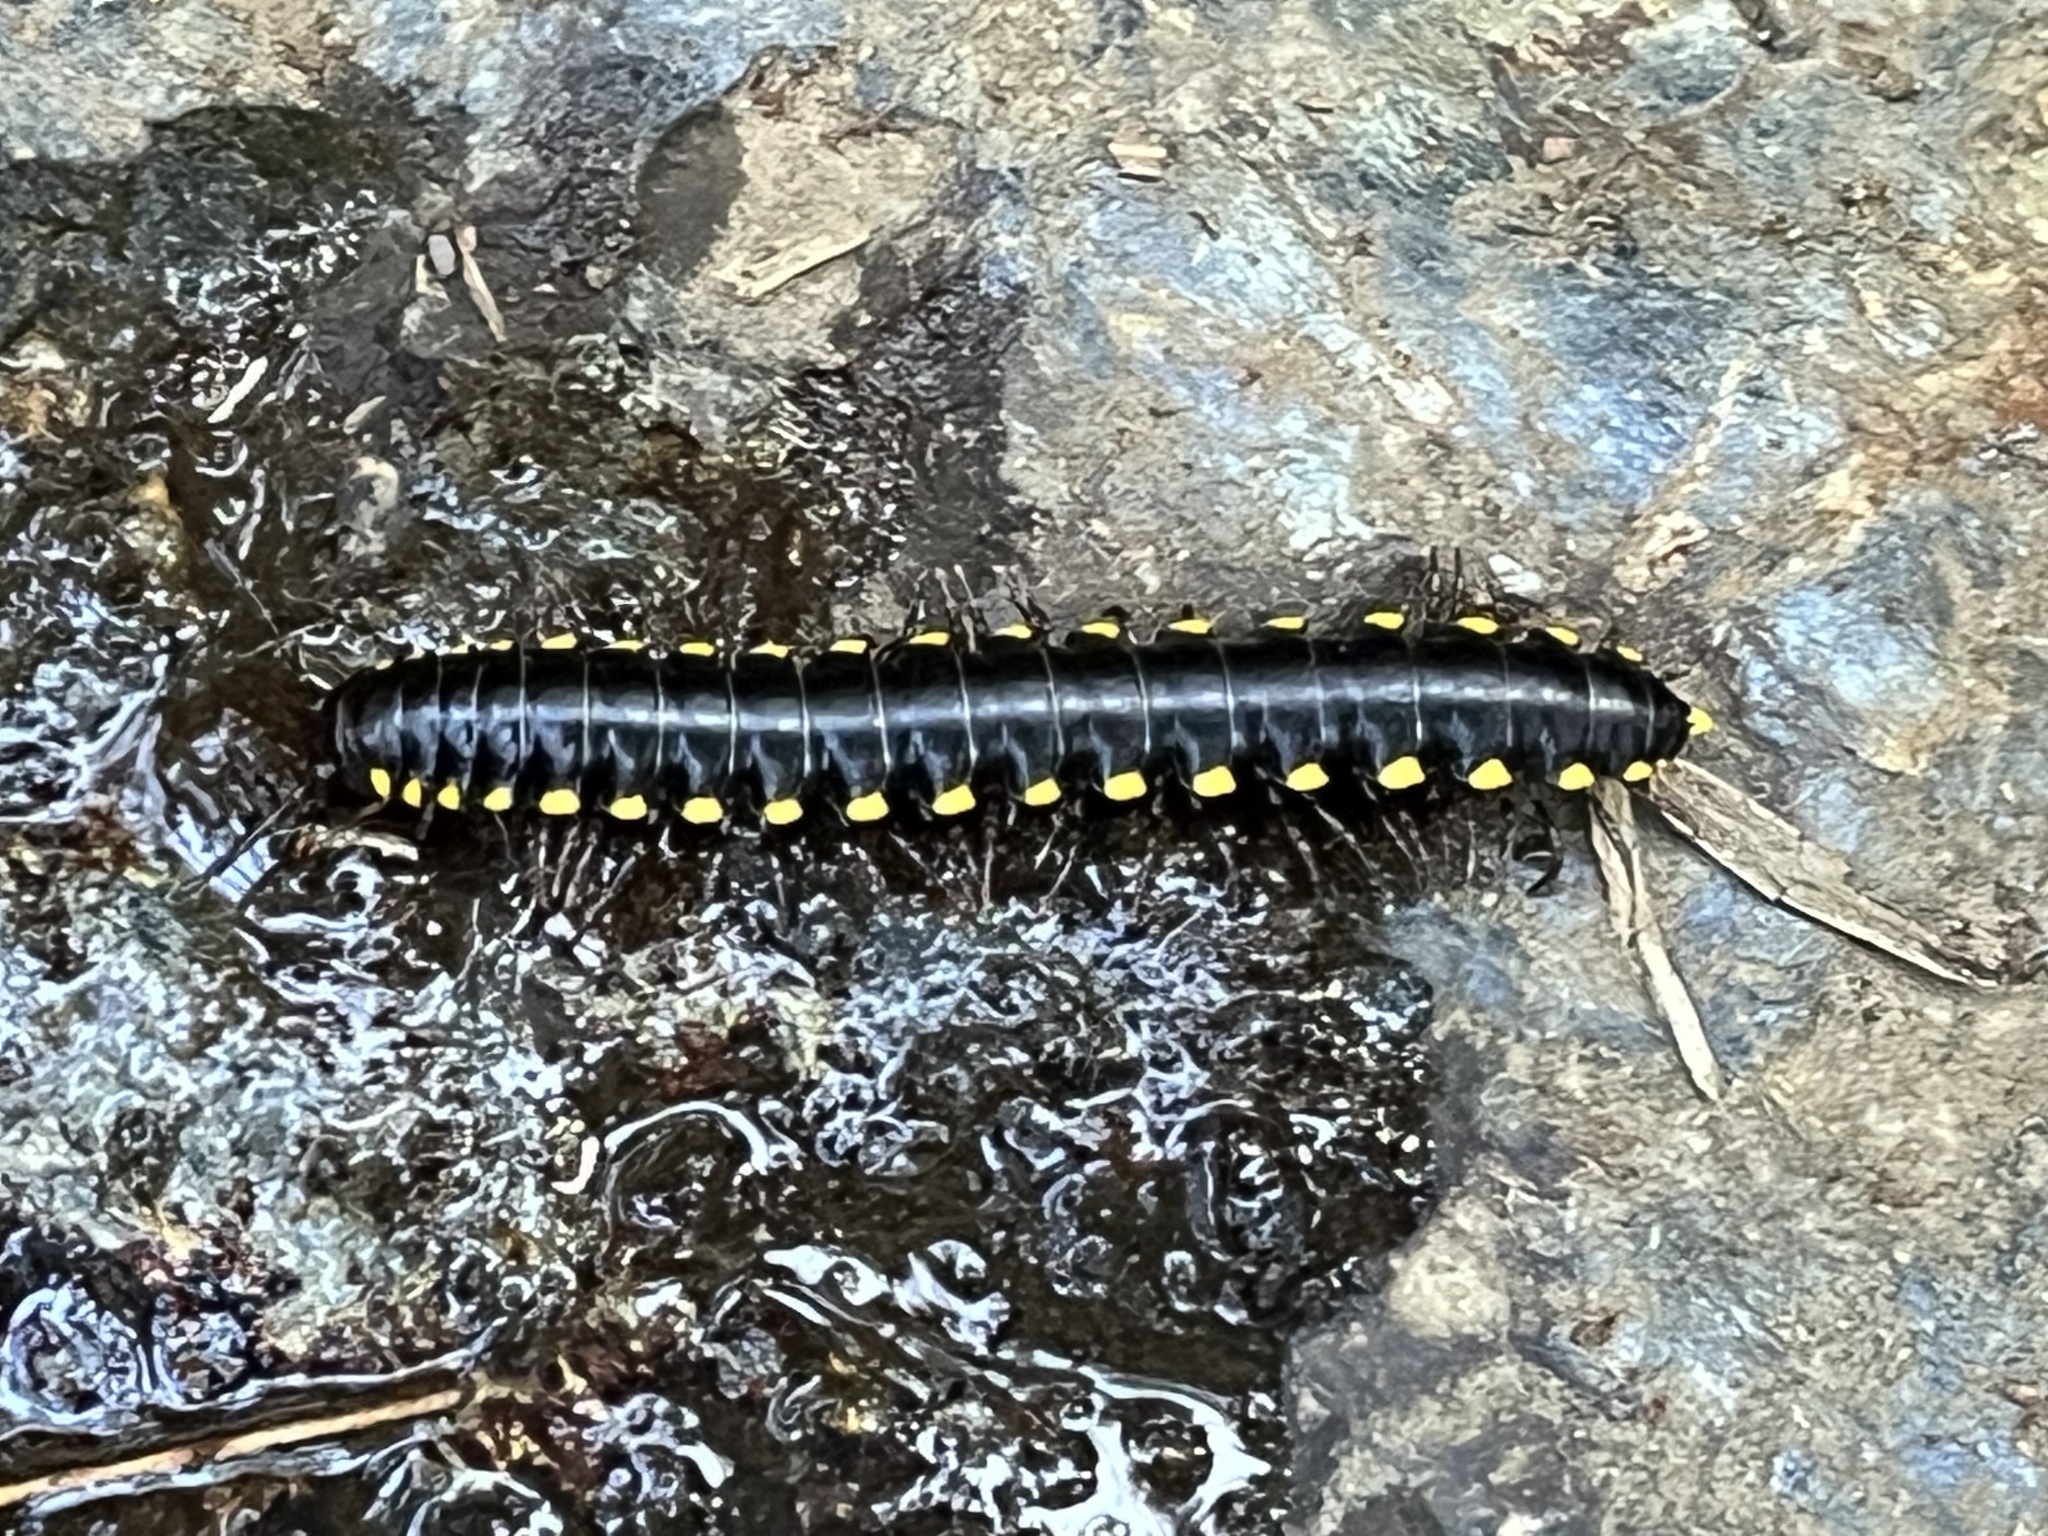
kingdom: Animalia
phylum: Arthropoda
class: Diplopoda
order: Polydesmida
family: Xystodesmidae
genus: Harpaphe
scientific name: Harpaphe haydeniana
